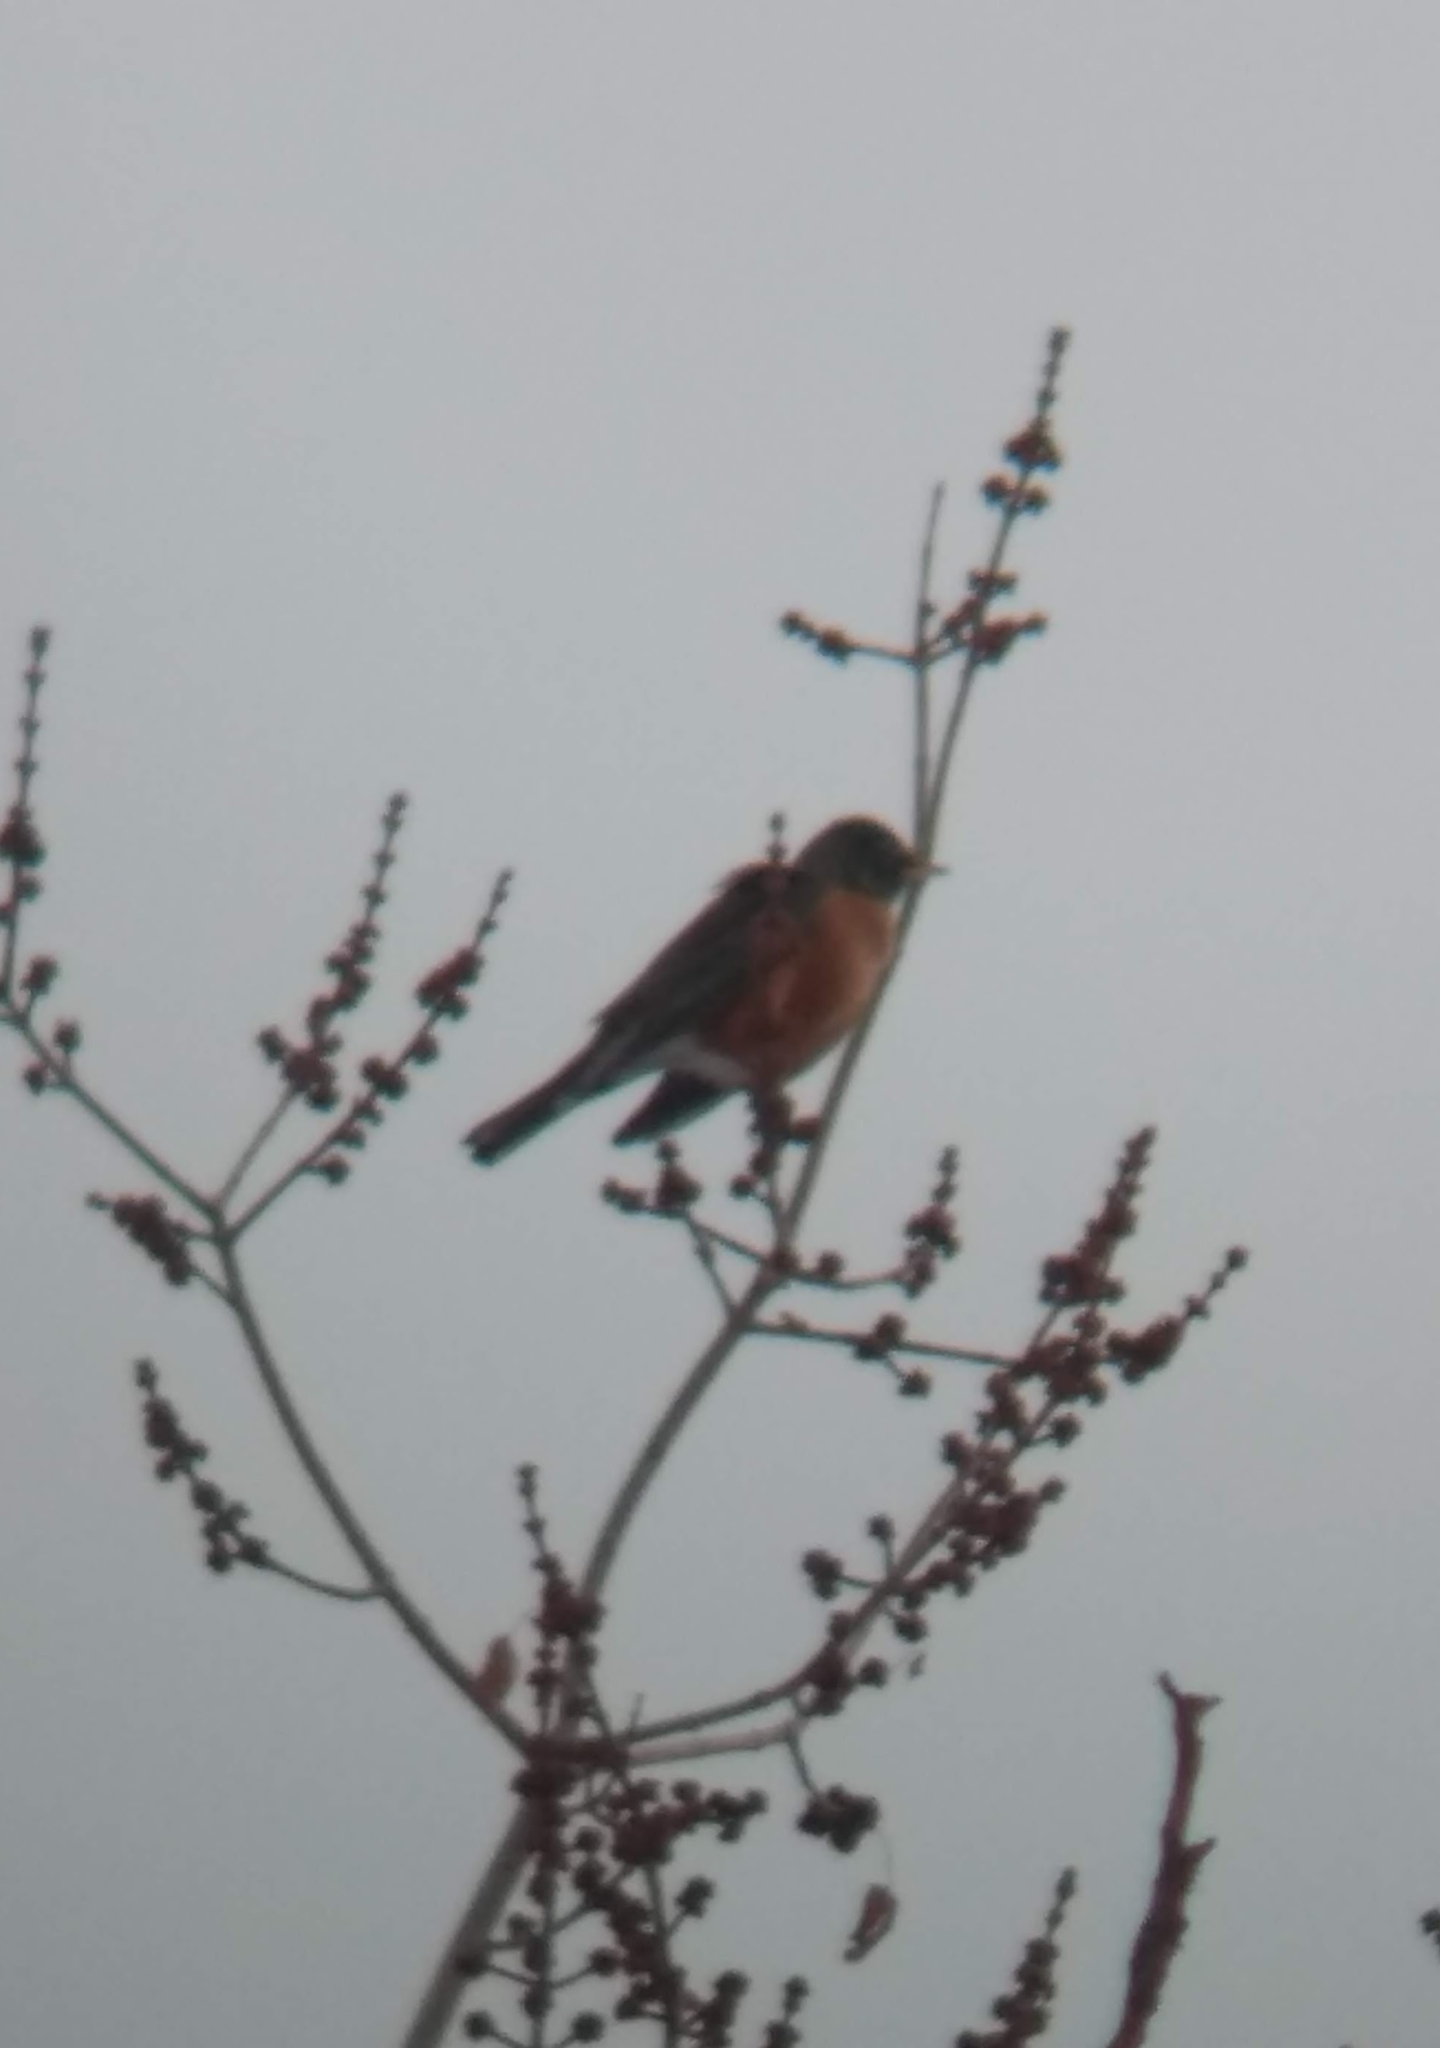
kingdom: Animalia
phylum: Chordata
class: Aves
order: Passeriformes
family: Turdidae
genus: Turdus
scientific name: Turdus migratorius
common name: American robin
